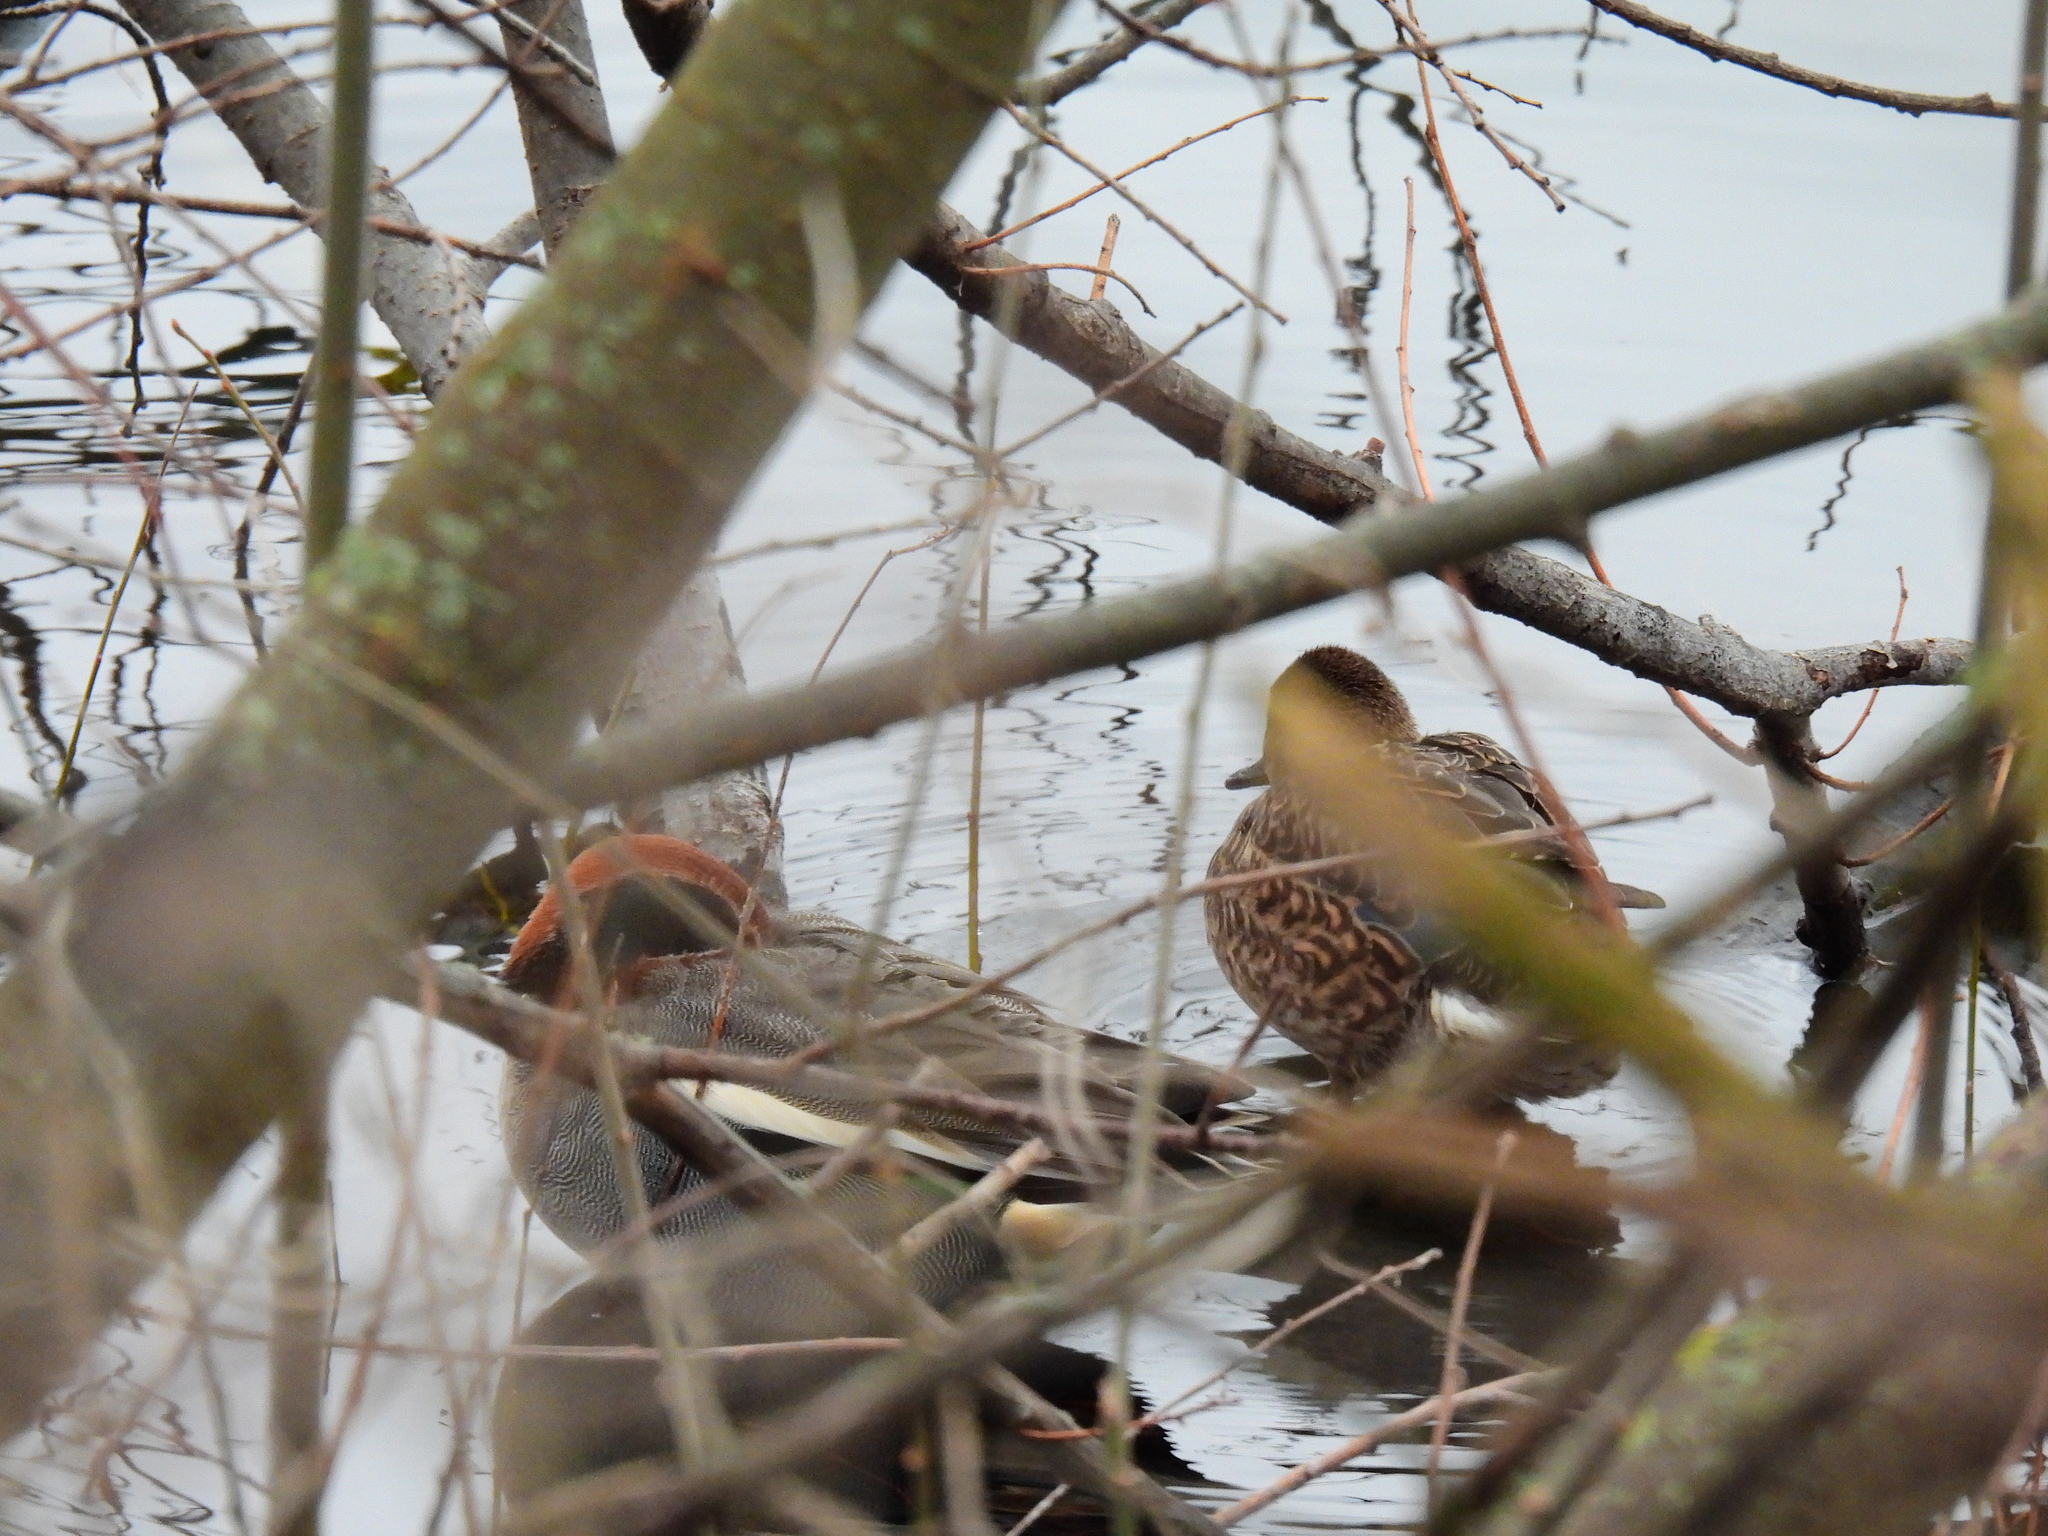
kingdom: Animalia
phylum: Chordata
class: Aves
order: Anseriformes
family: Anatidae
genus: Anas
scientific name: Anas crecca
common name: Eurasian teal
